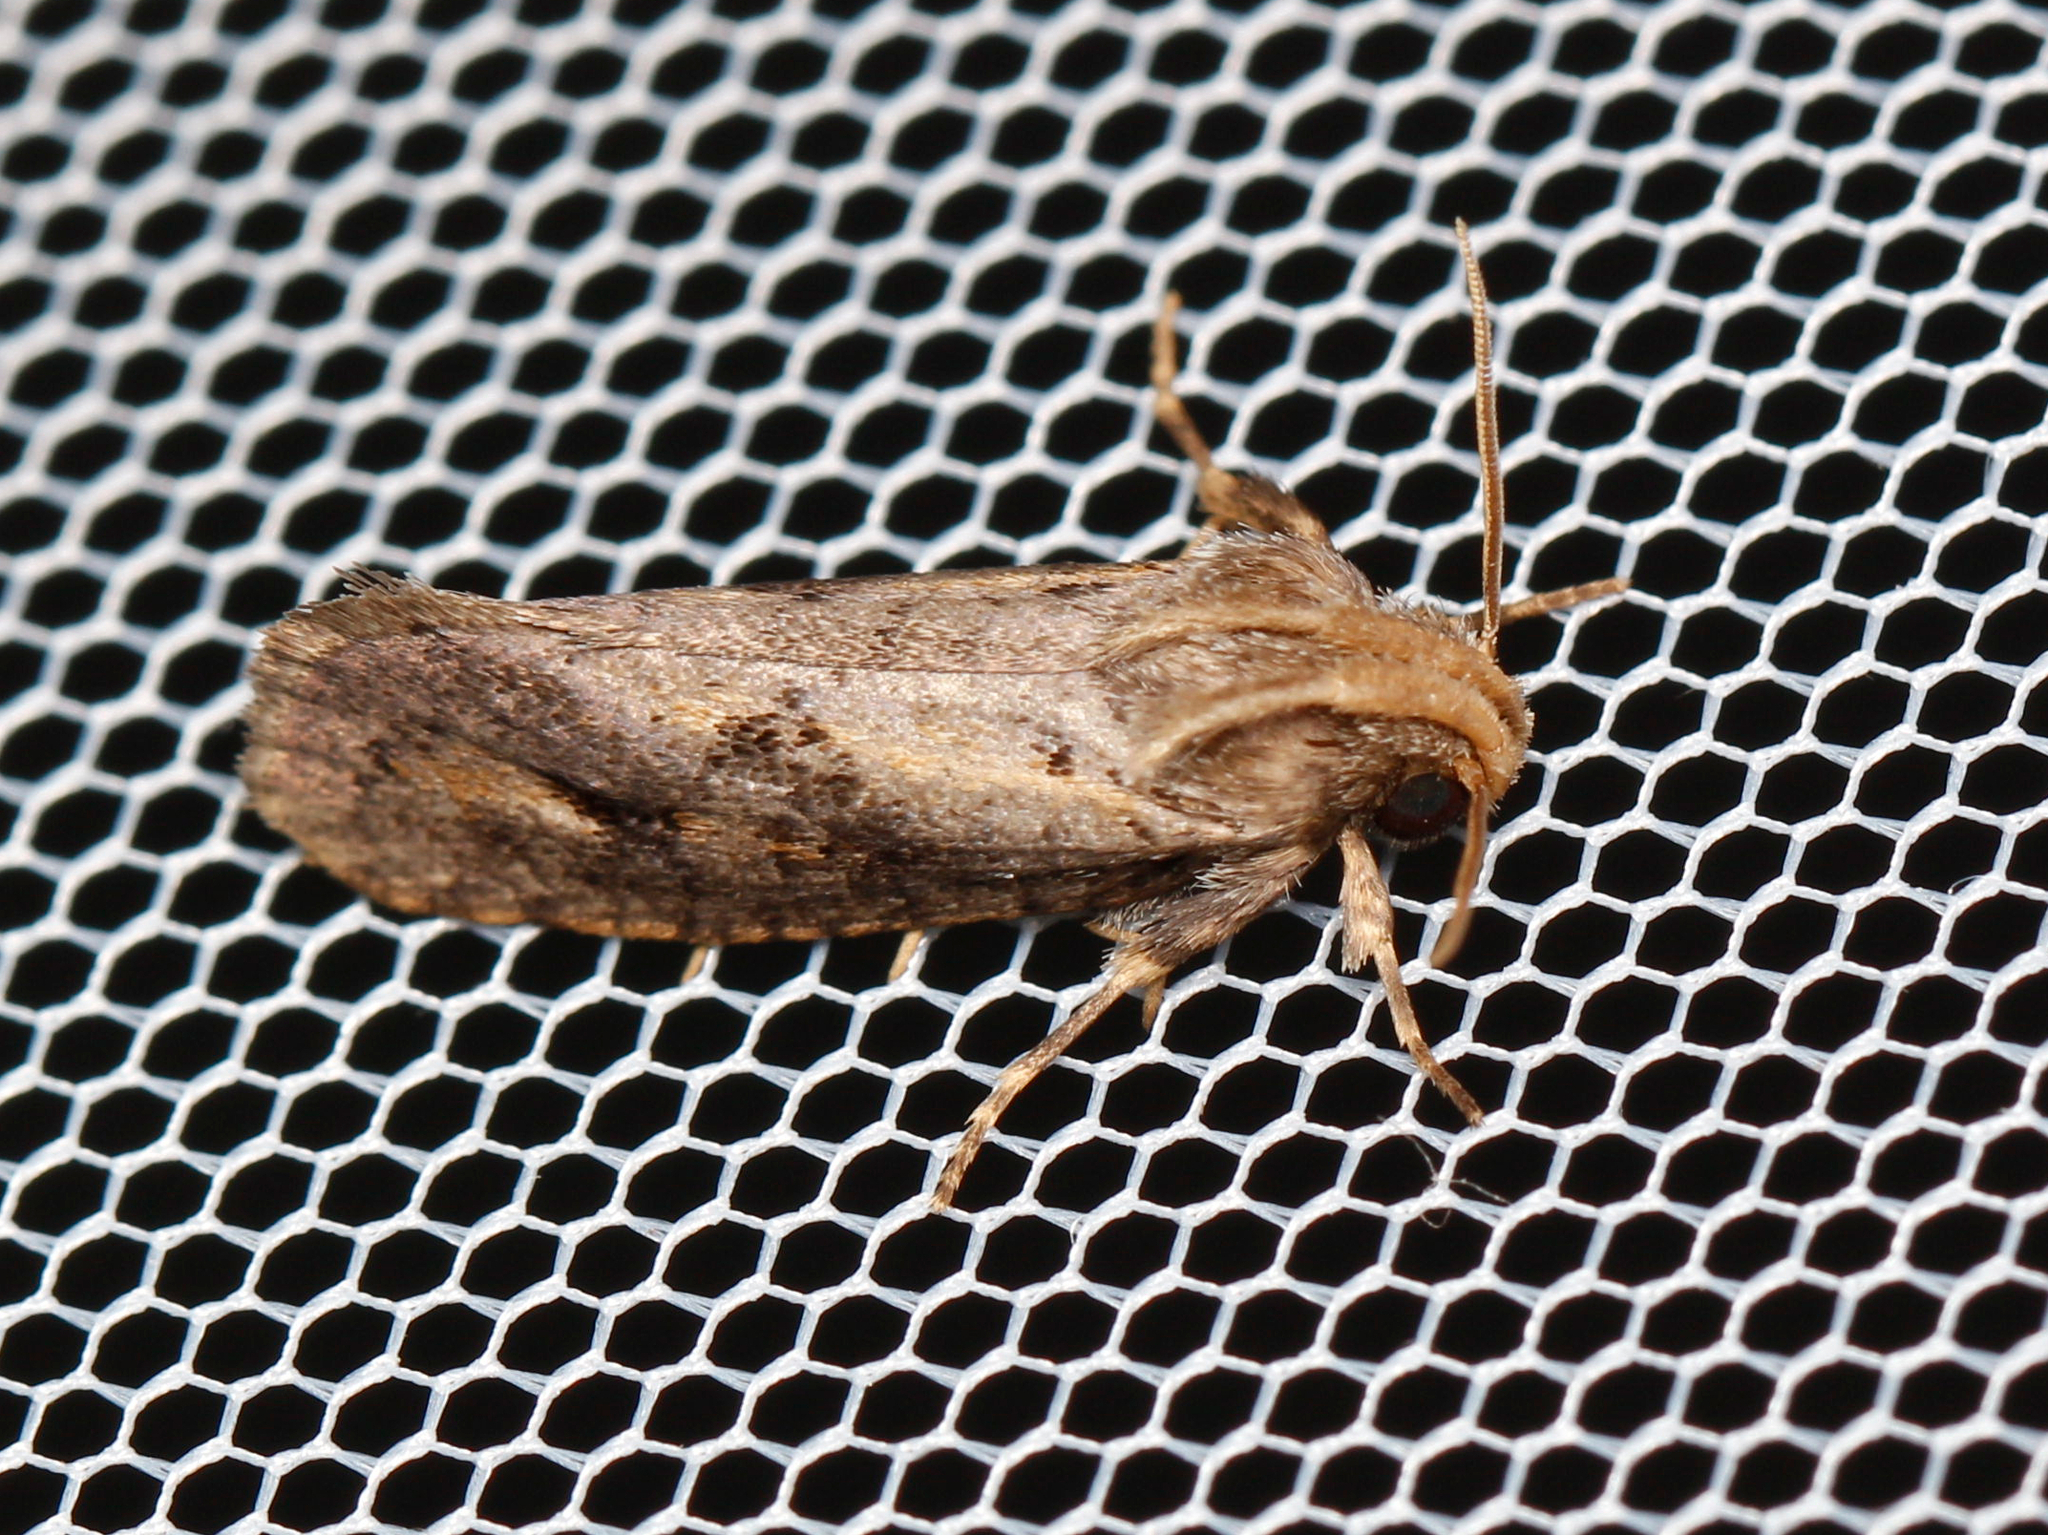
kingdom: Animalia
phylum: Arthropoda
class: Insecta
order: Lepidoptera
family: Tineidae
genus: Acrolophus
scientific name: Acrolophus popeanella
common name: Clemens' grass tubeworm moth
